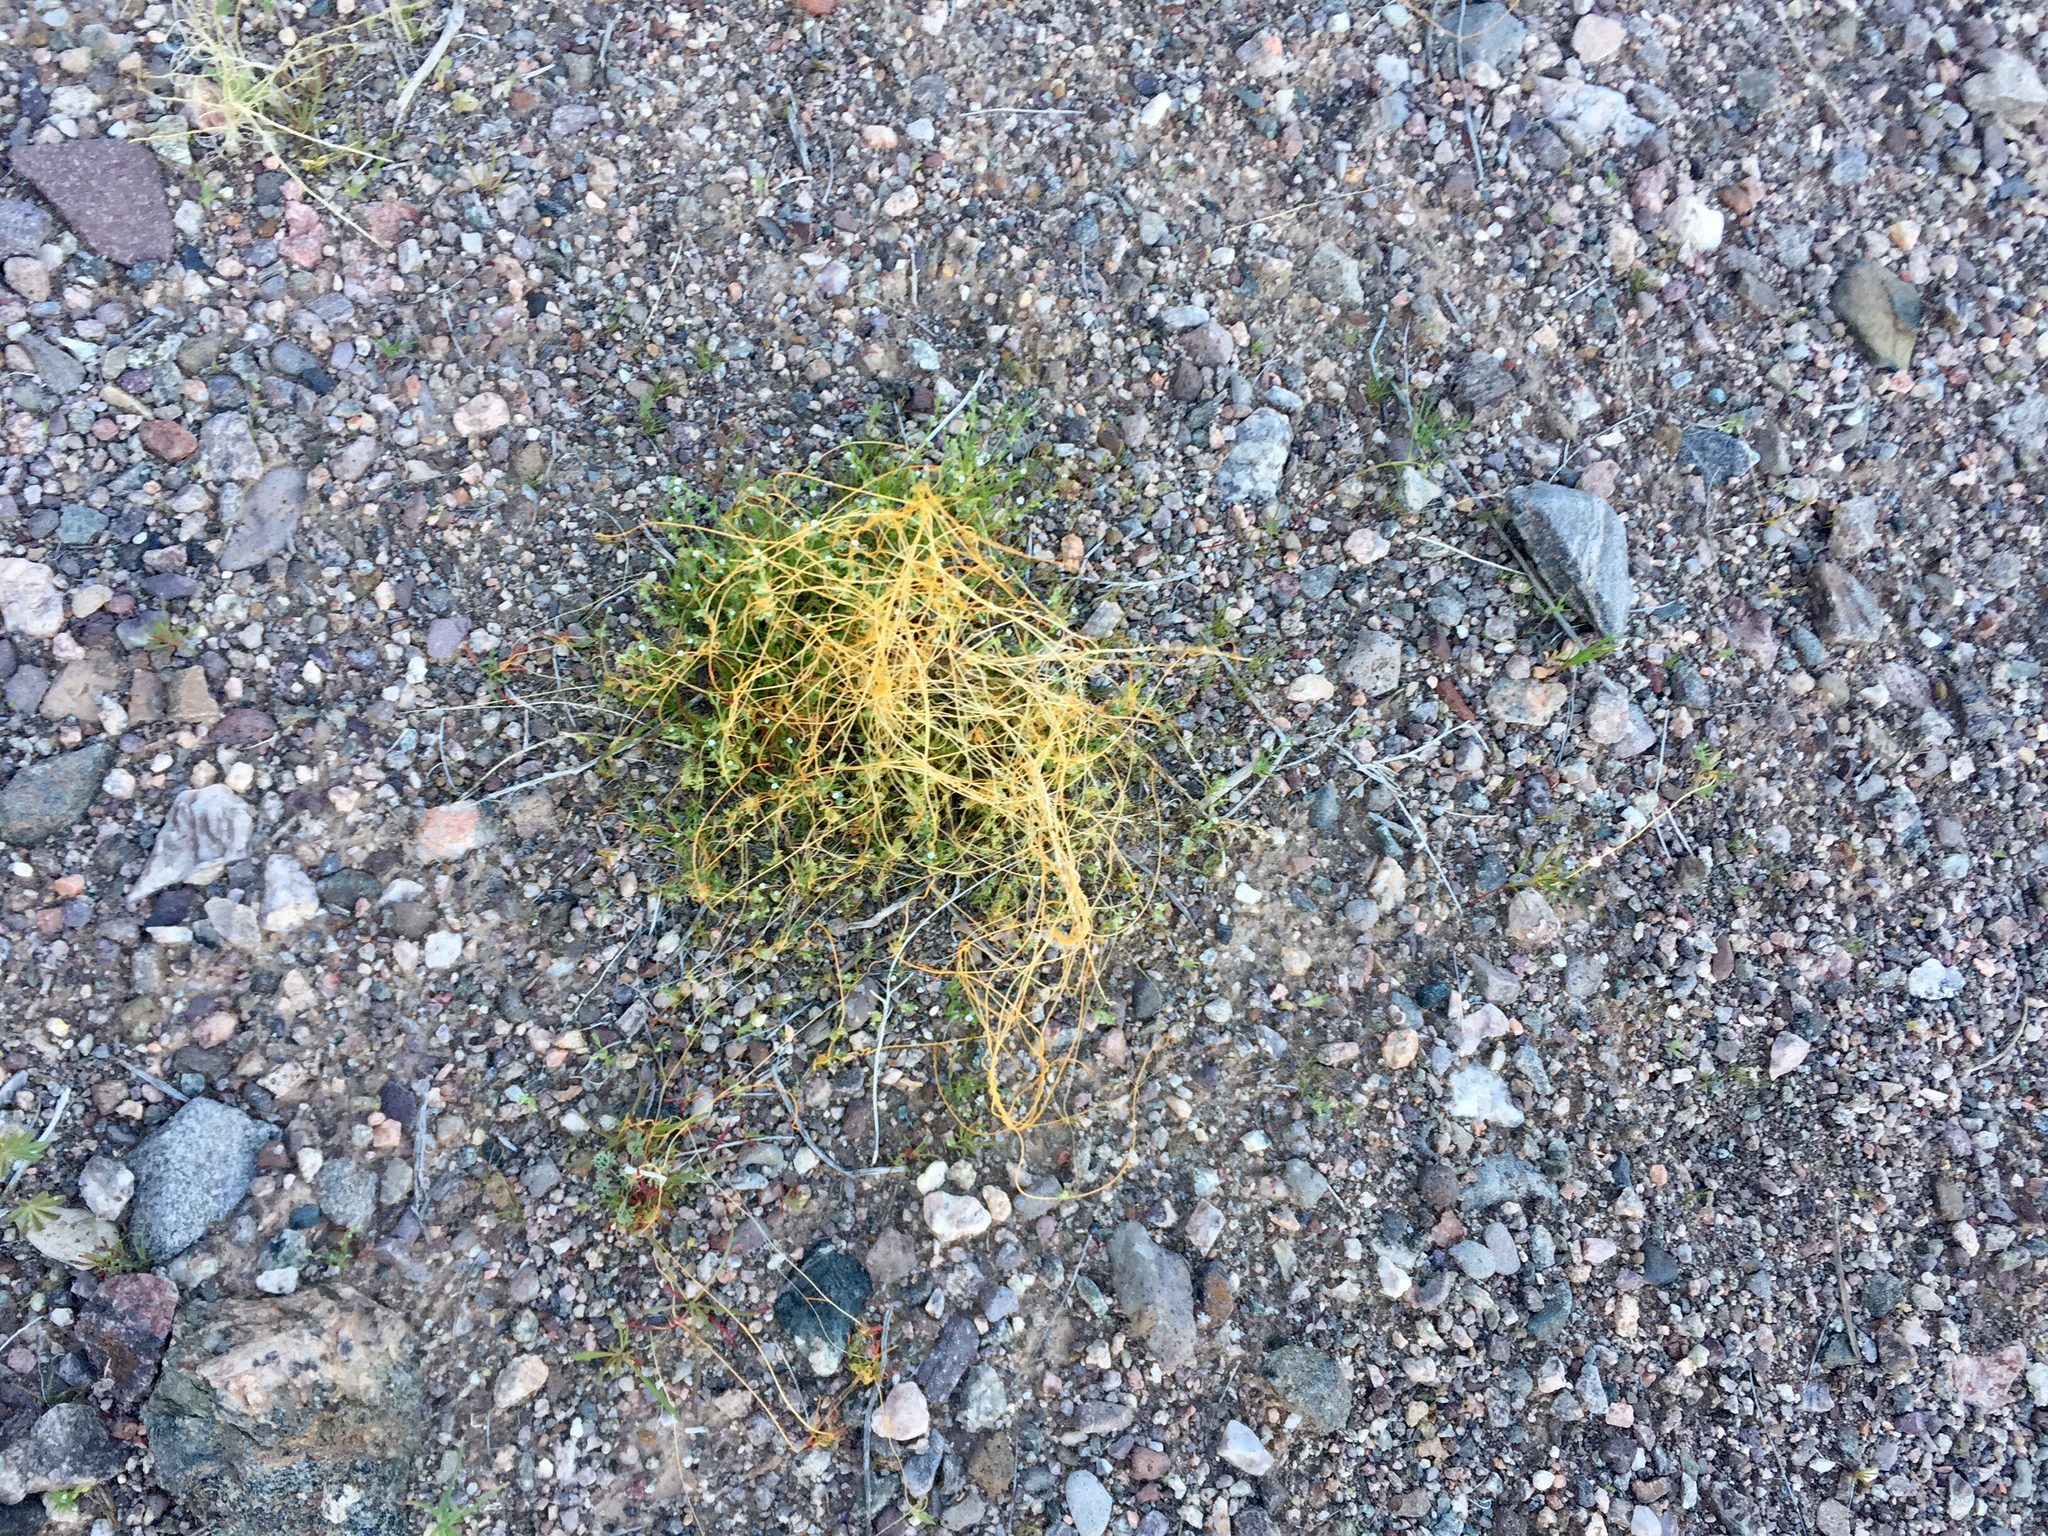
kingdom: Plantae
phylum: Tracheophyta
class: Magnoliopsida
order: Solanales
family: Convolvulaceae
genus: Cuscuta
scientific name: Cuscuta denticulata
